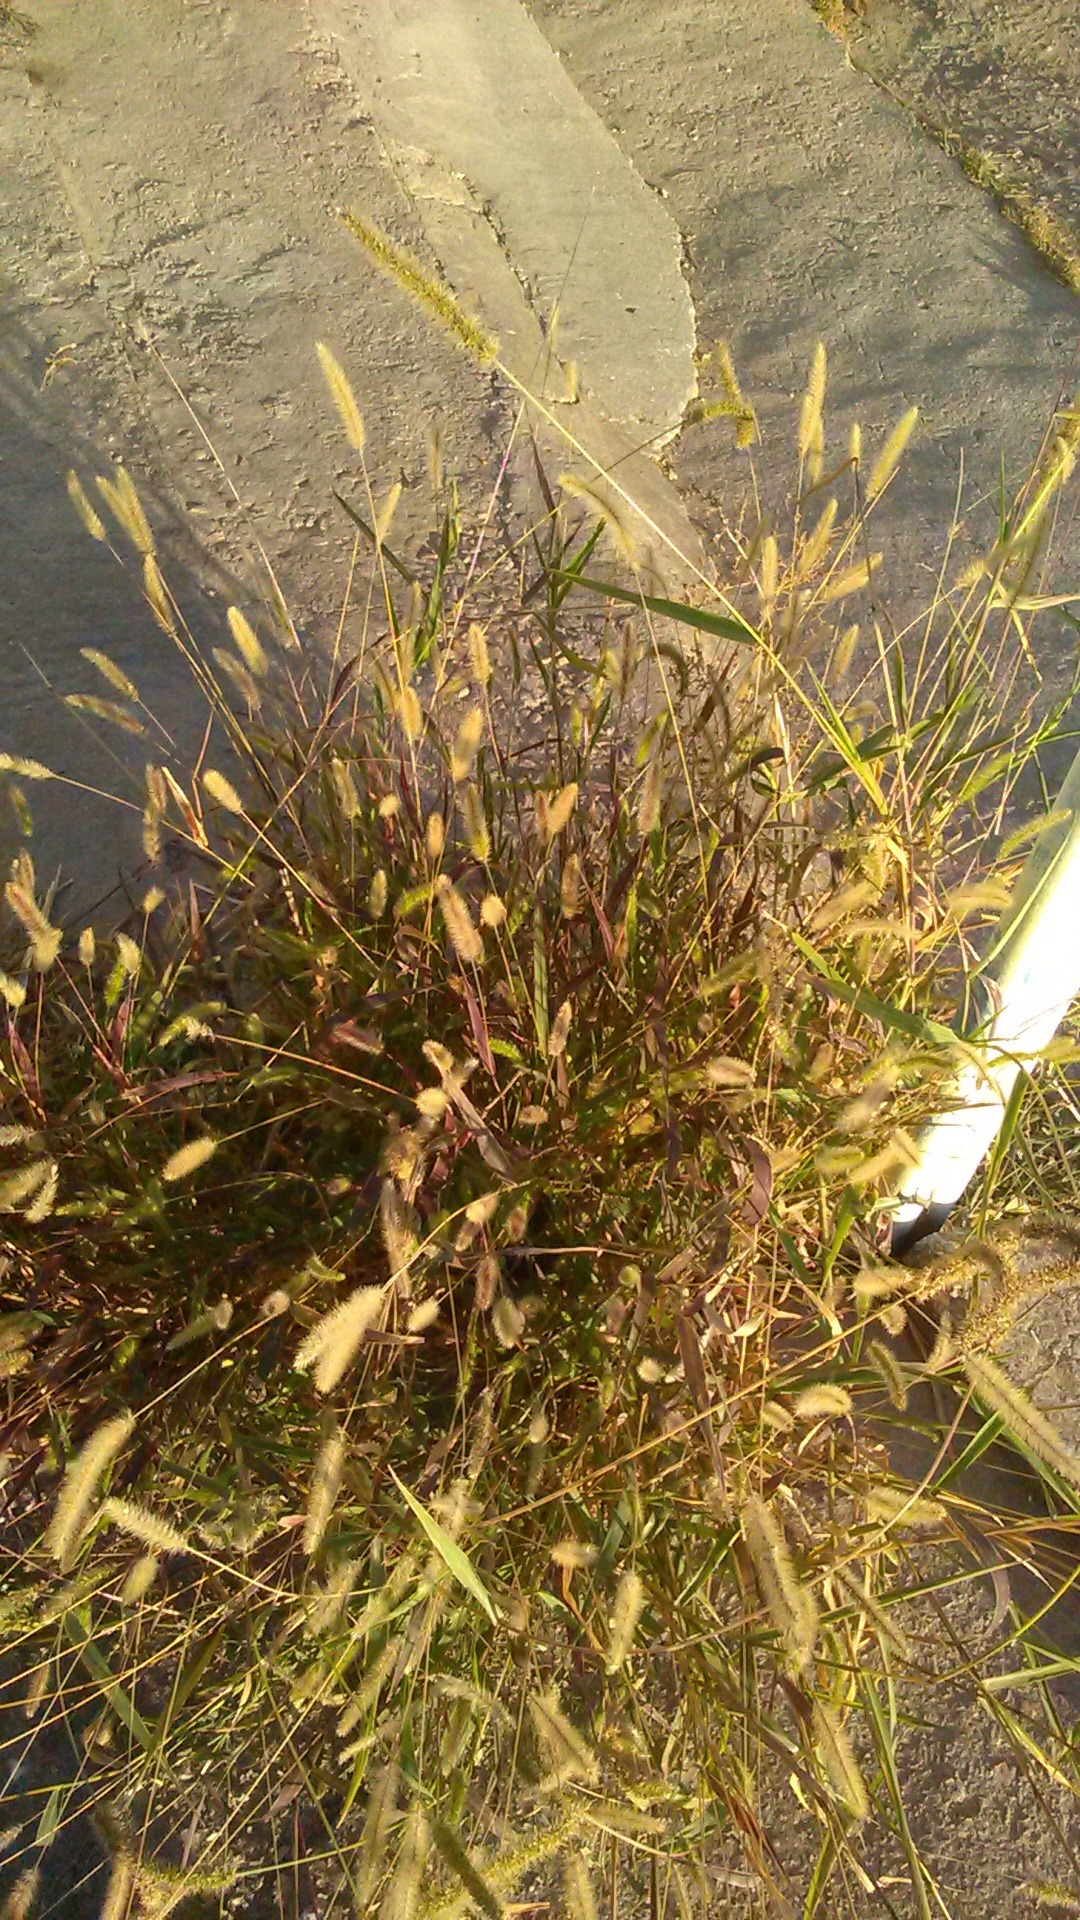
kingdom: Plantae
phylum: Tracheophyta
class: Liliopsida
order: Poales
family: Poaceae
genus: Setaria
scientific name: Setaria viridis
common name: Green bristlegrass
